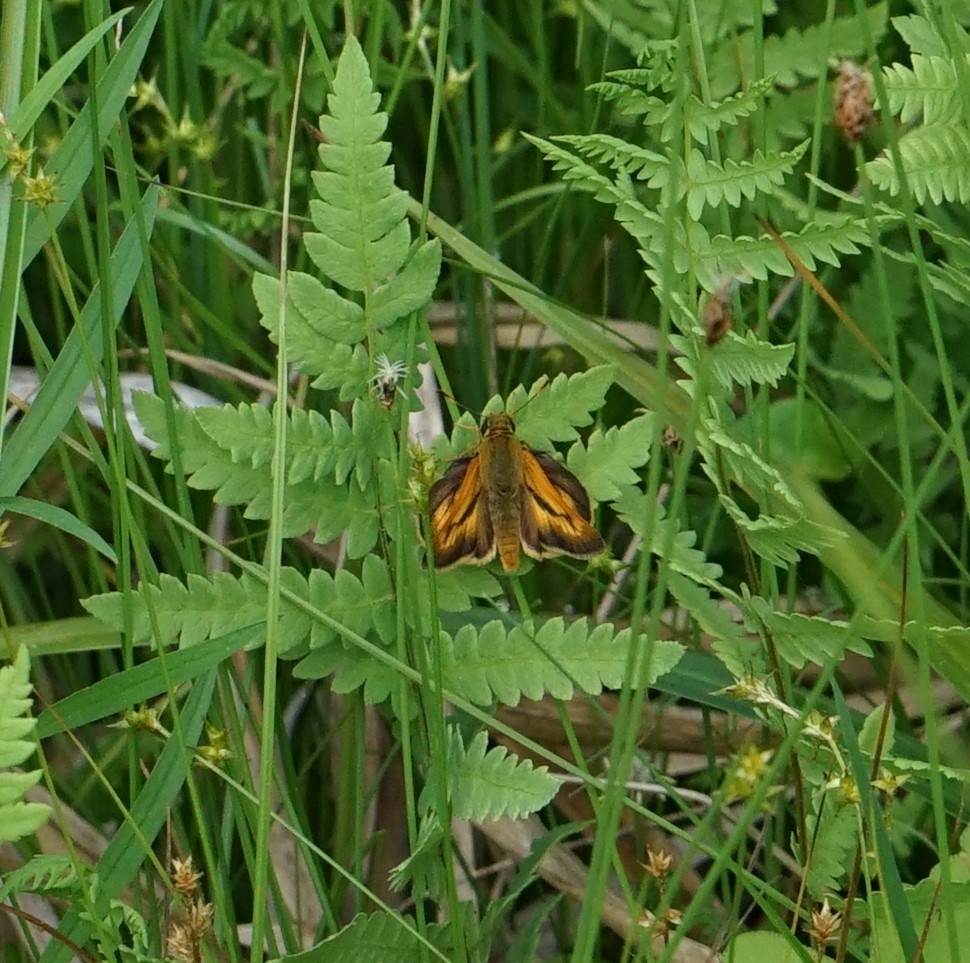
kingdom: Animalia
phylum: Arthropoda
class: Insecta
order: Lepidoptera
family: Hesperiidae
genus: Polites
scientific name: Polites mystic
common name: Long dash
